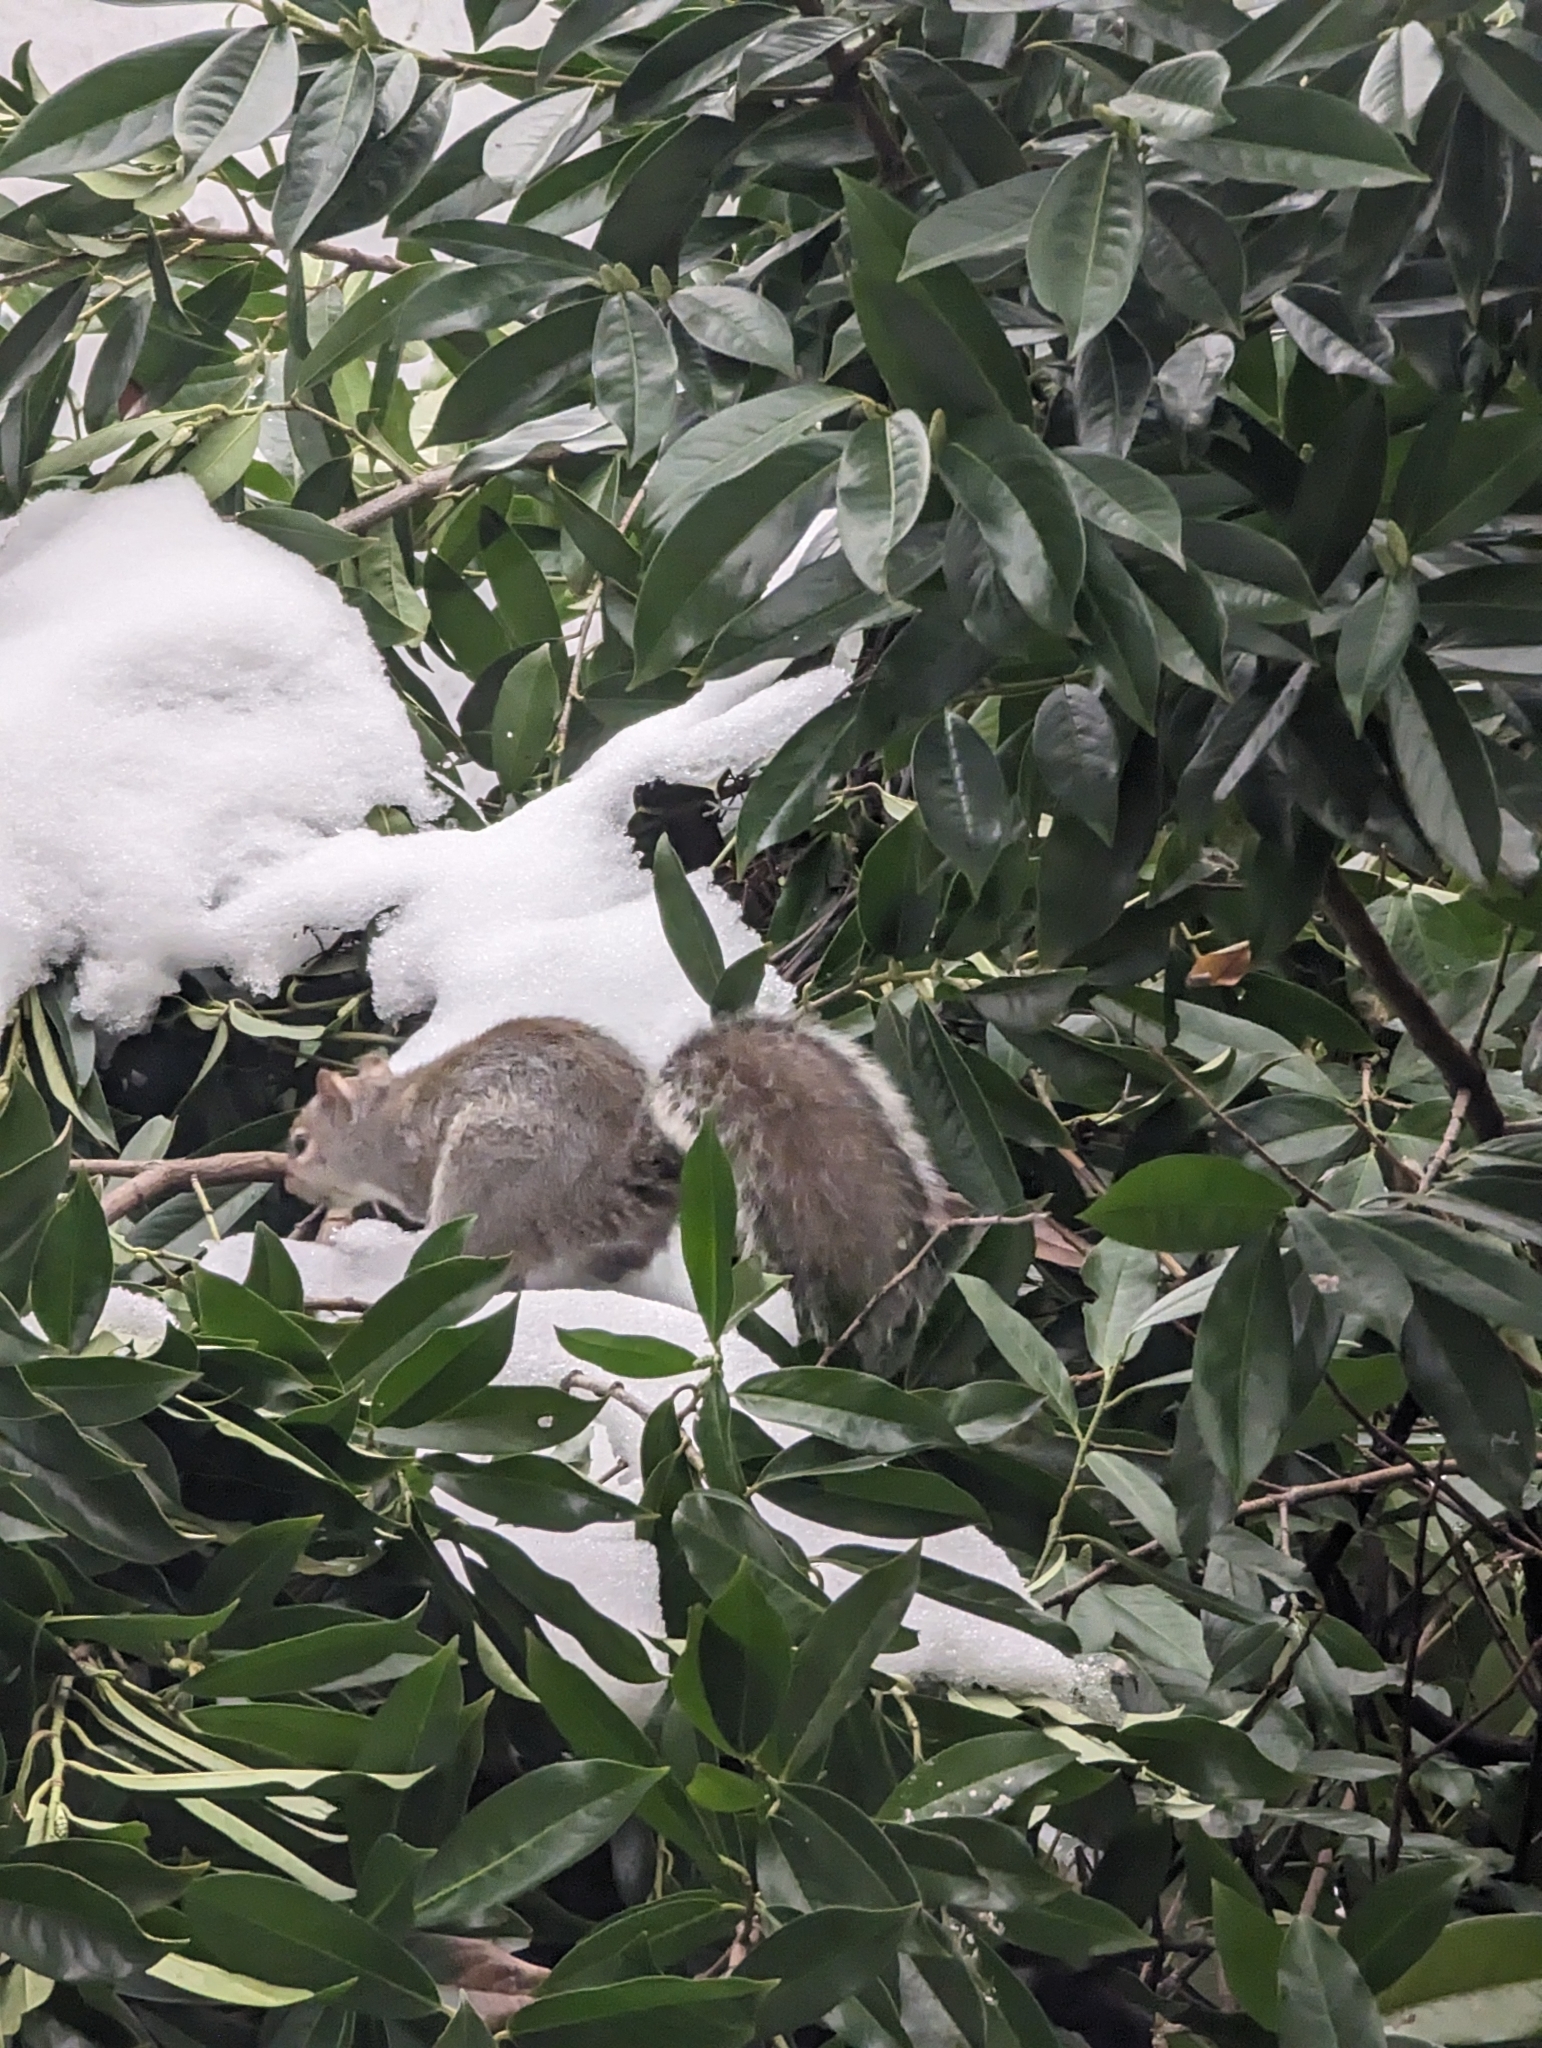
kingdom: Animalia
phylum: Chordata
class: Mammalia
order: Rodentia
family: Sciuridae
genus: Sciurus
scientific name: Sciurus carolinensis
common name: Eastern gray squirrel
